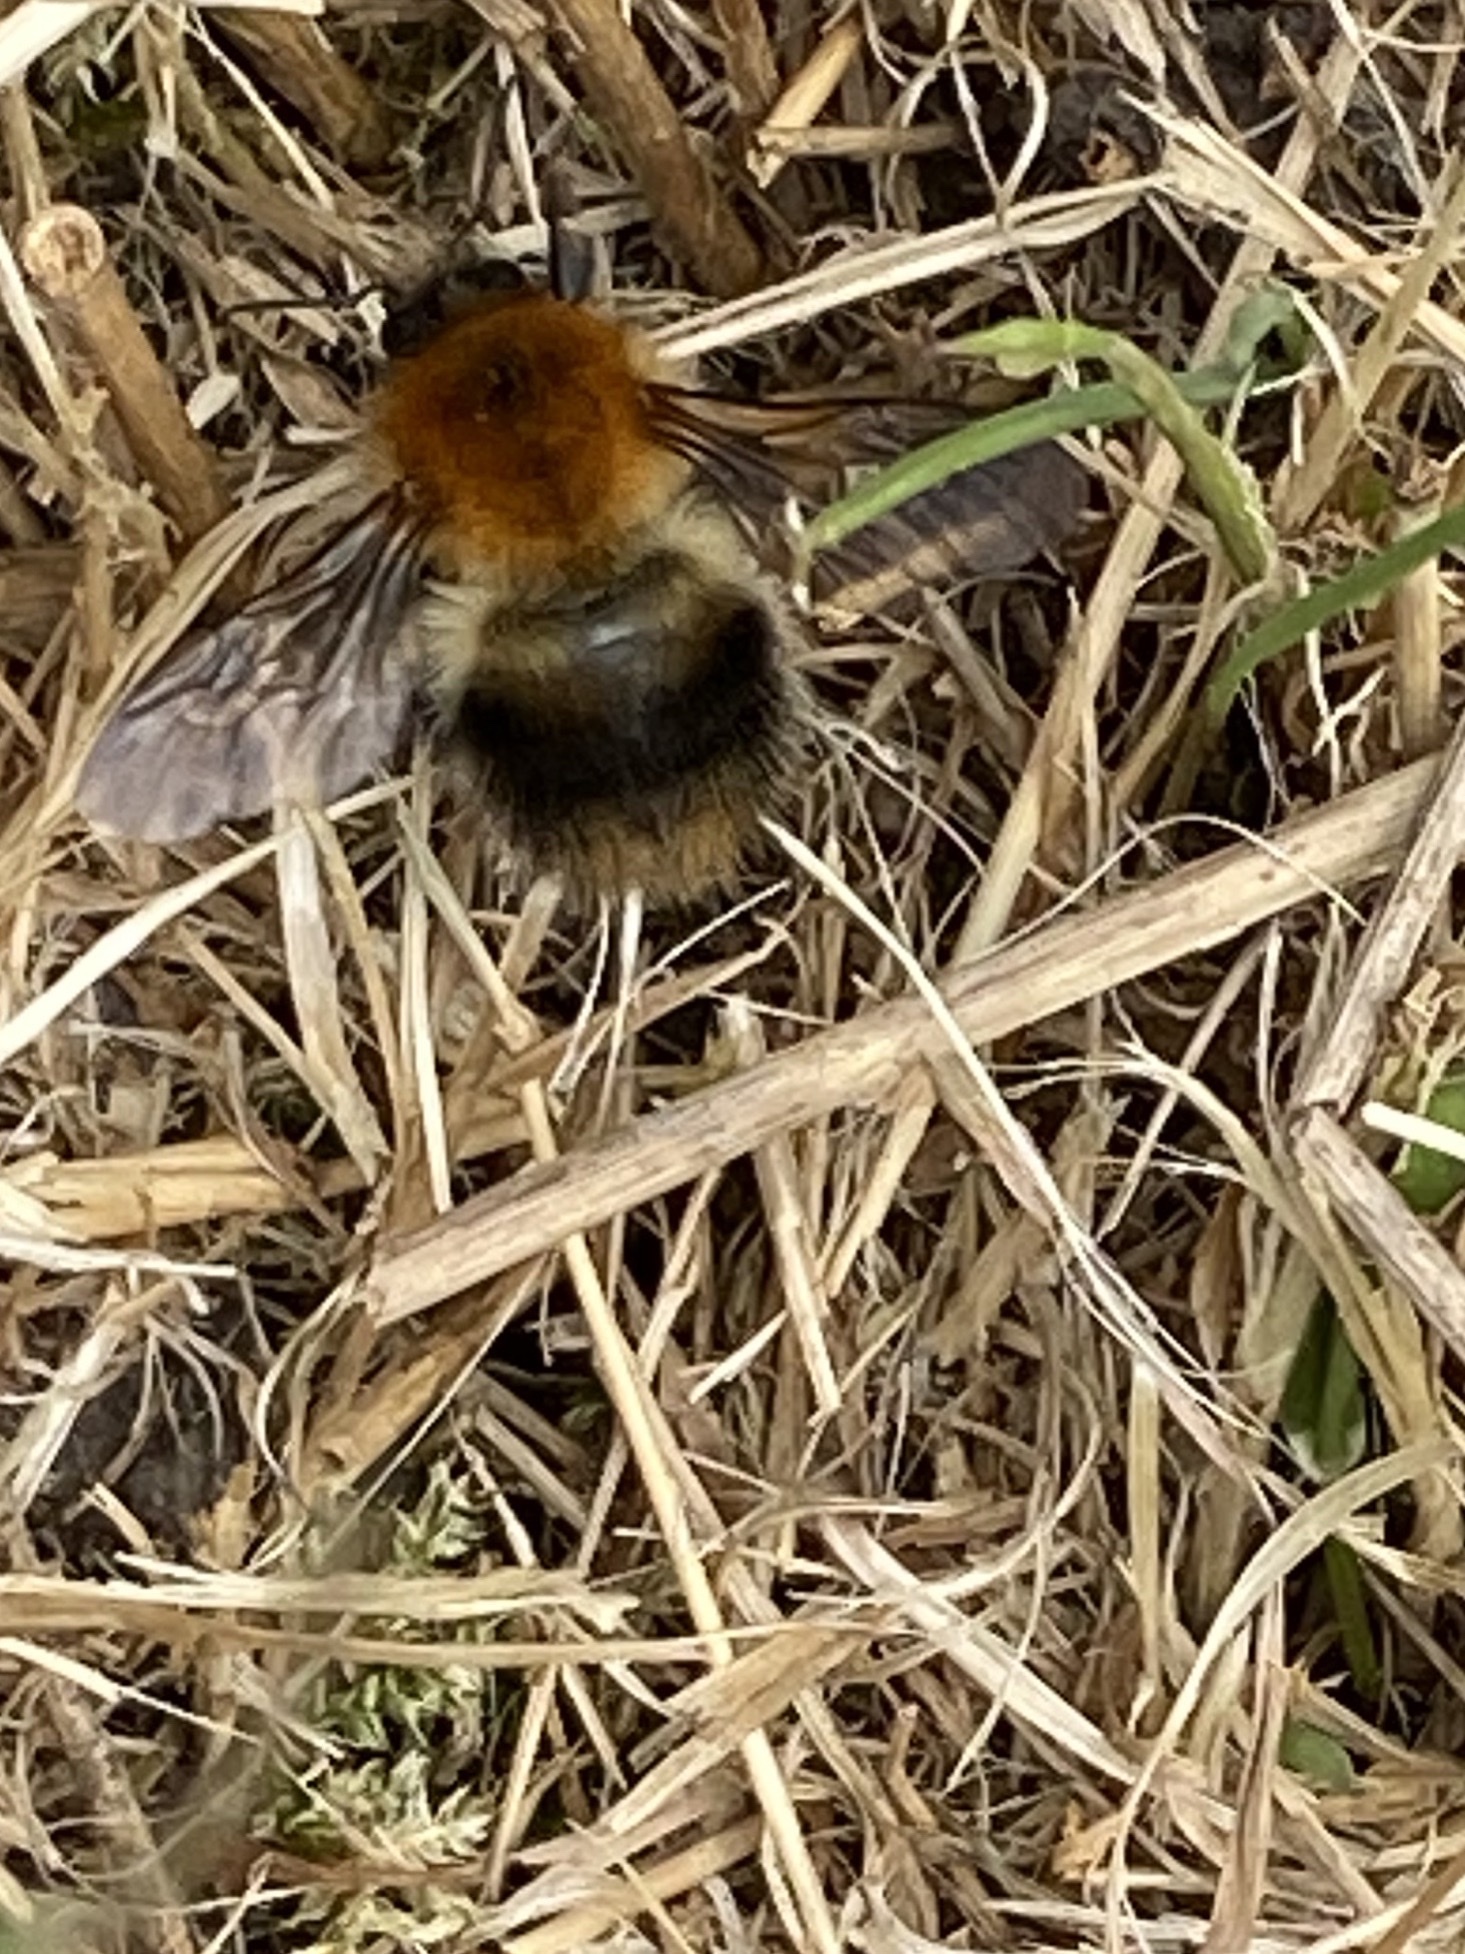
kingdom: Animalia
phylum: Arthropoda
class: Insecta
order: Hymenoptera
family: Apidae
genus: Bombus
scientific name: Bombus pascuorum
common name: Common carder bee
